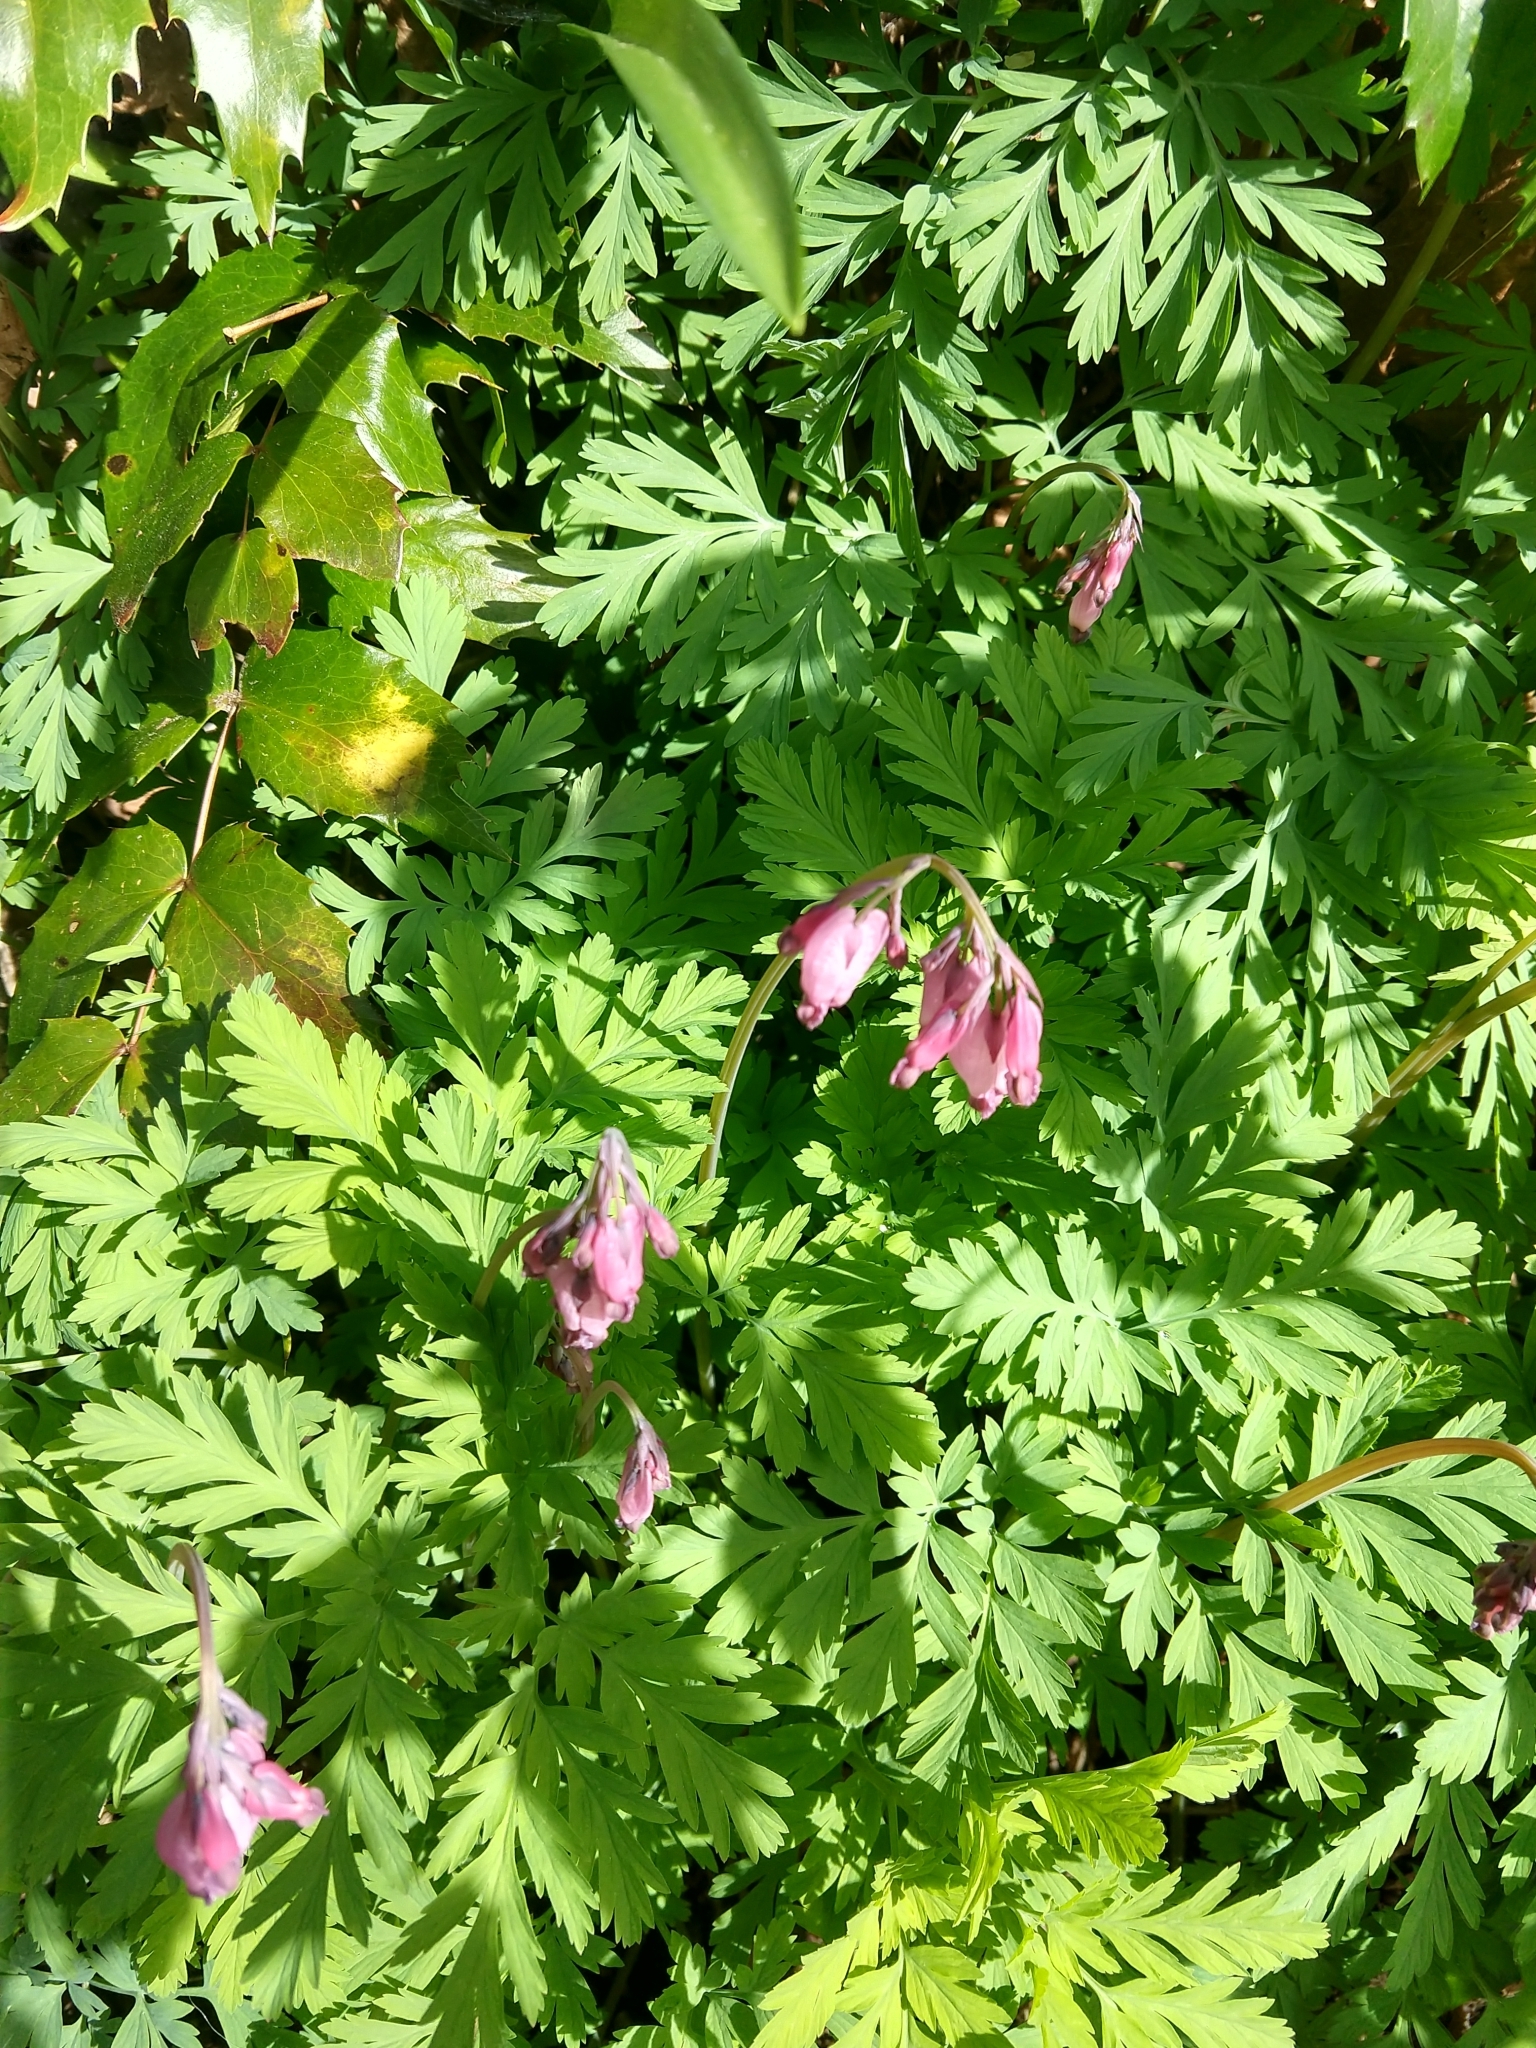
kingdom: Plantae
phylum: Tracheophyta
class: Magnoliopsida
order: Ranunculales
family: Papaveraceae
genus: Dicentra
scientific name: Dicentra formosa
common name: Bleeding-heart
